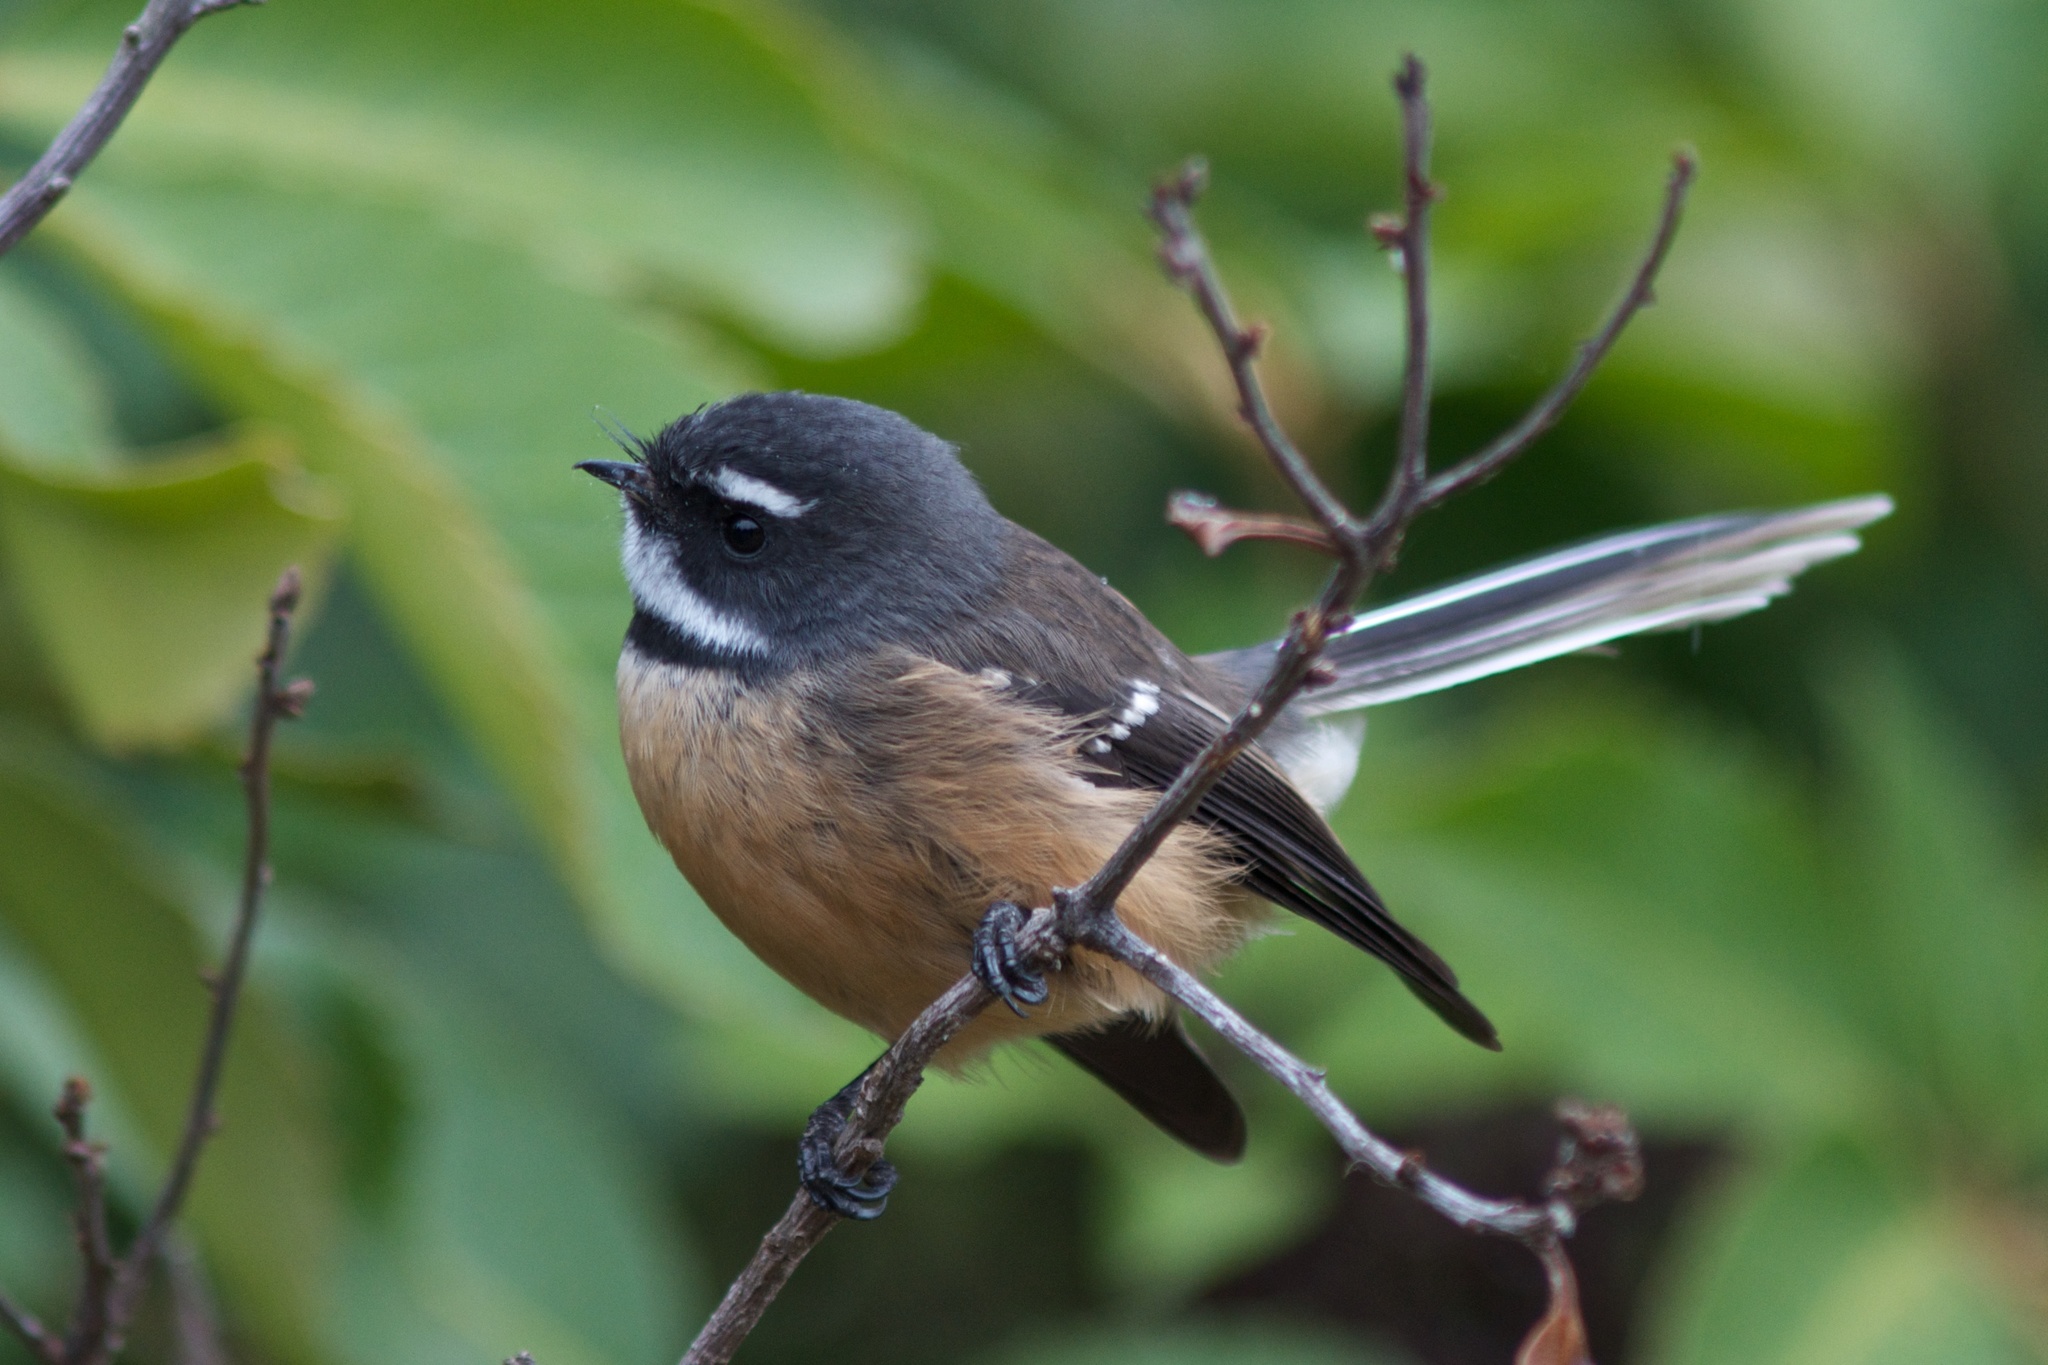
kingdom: Animalia
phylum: Chordata
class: Aves
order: Passeriformes
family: Rhipiduridae
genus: Rhipidura
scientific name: Rhipidura fuliginosa
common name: New zealand fantail
